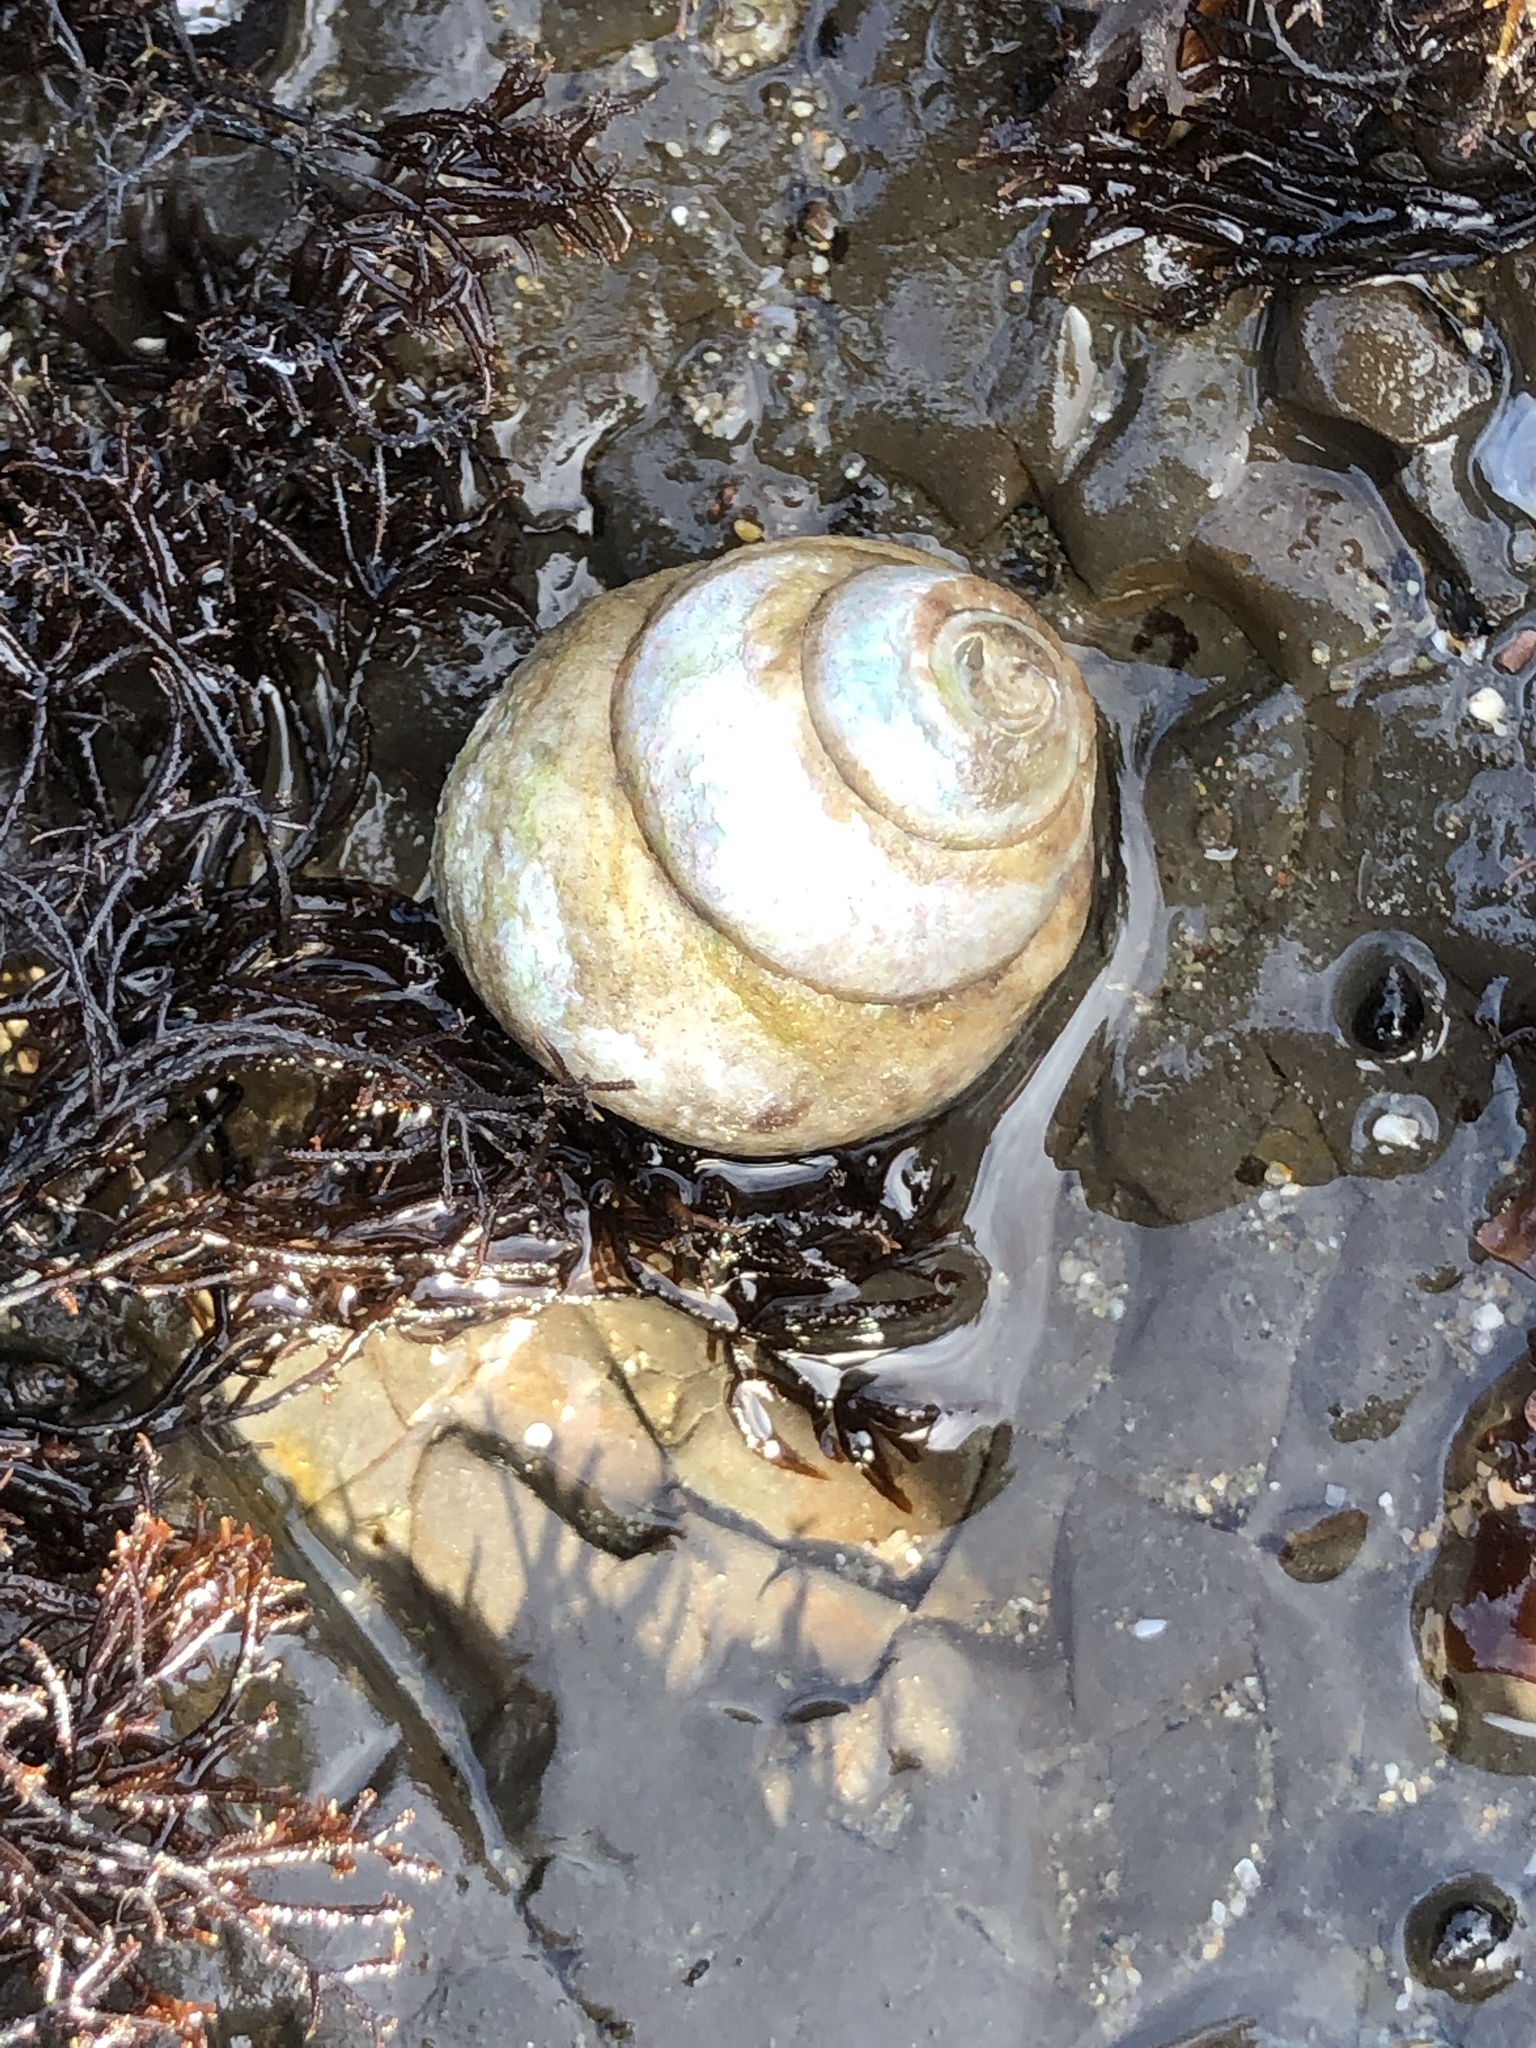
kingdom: Animalia
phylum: Mollusca
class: Gastropoda
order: Trochida
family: Tegulidae
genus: Tegula
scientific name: Tegula brunnea
